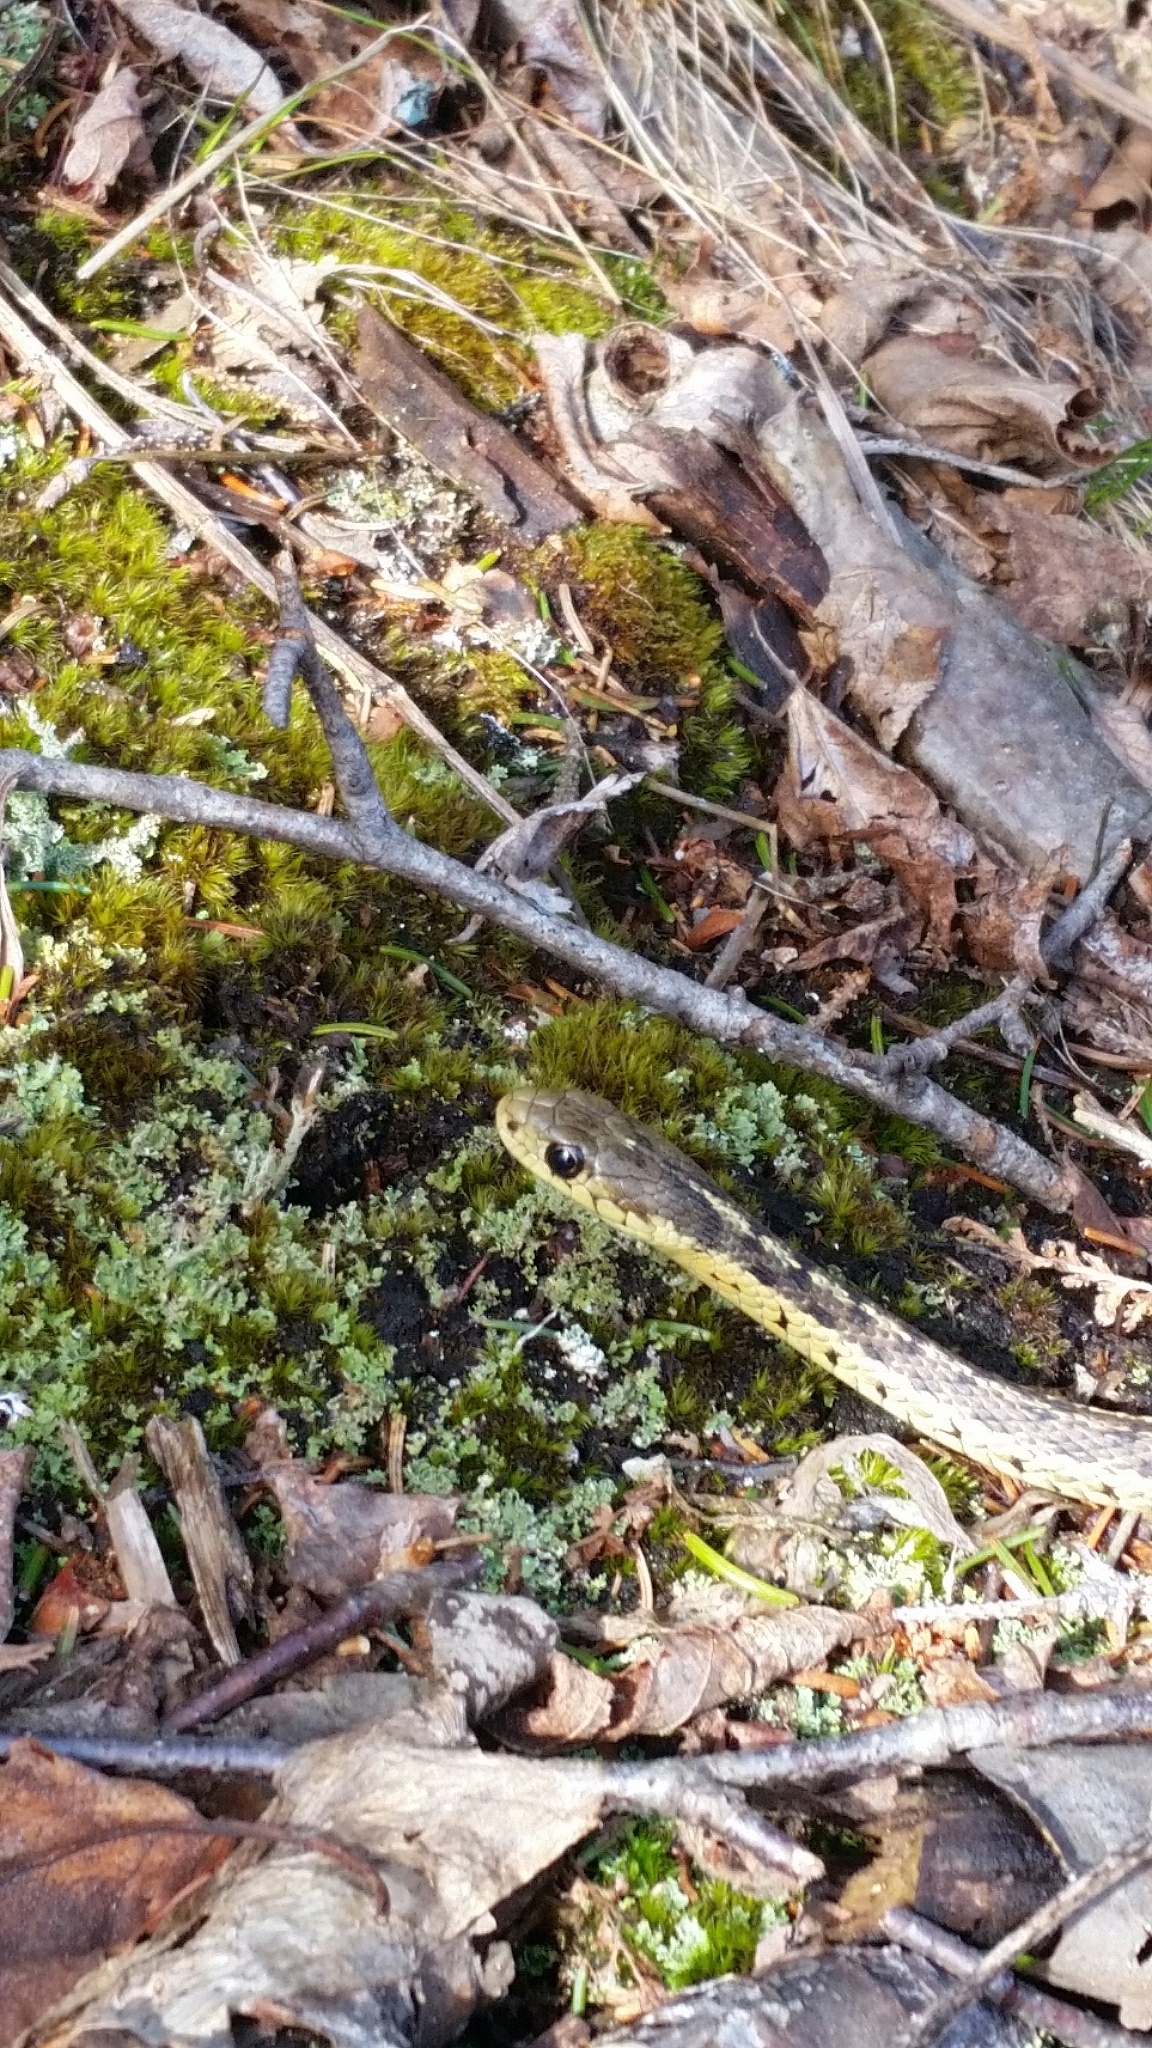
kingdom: Animalia
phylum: Chordata
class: Squamata
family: Colubridae
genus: Thamnophis
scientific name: Thamnophis sirtalis
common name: Common garter snake
